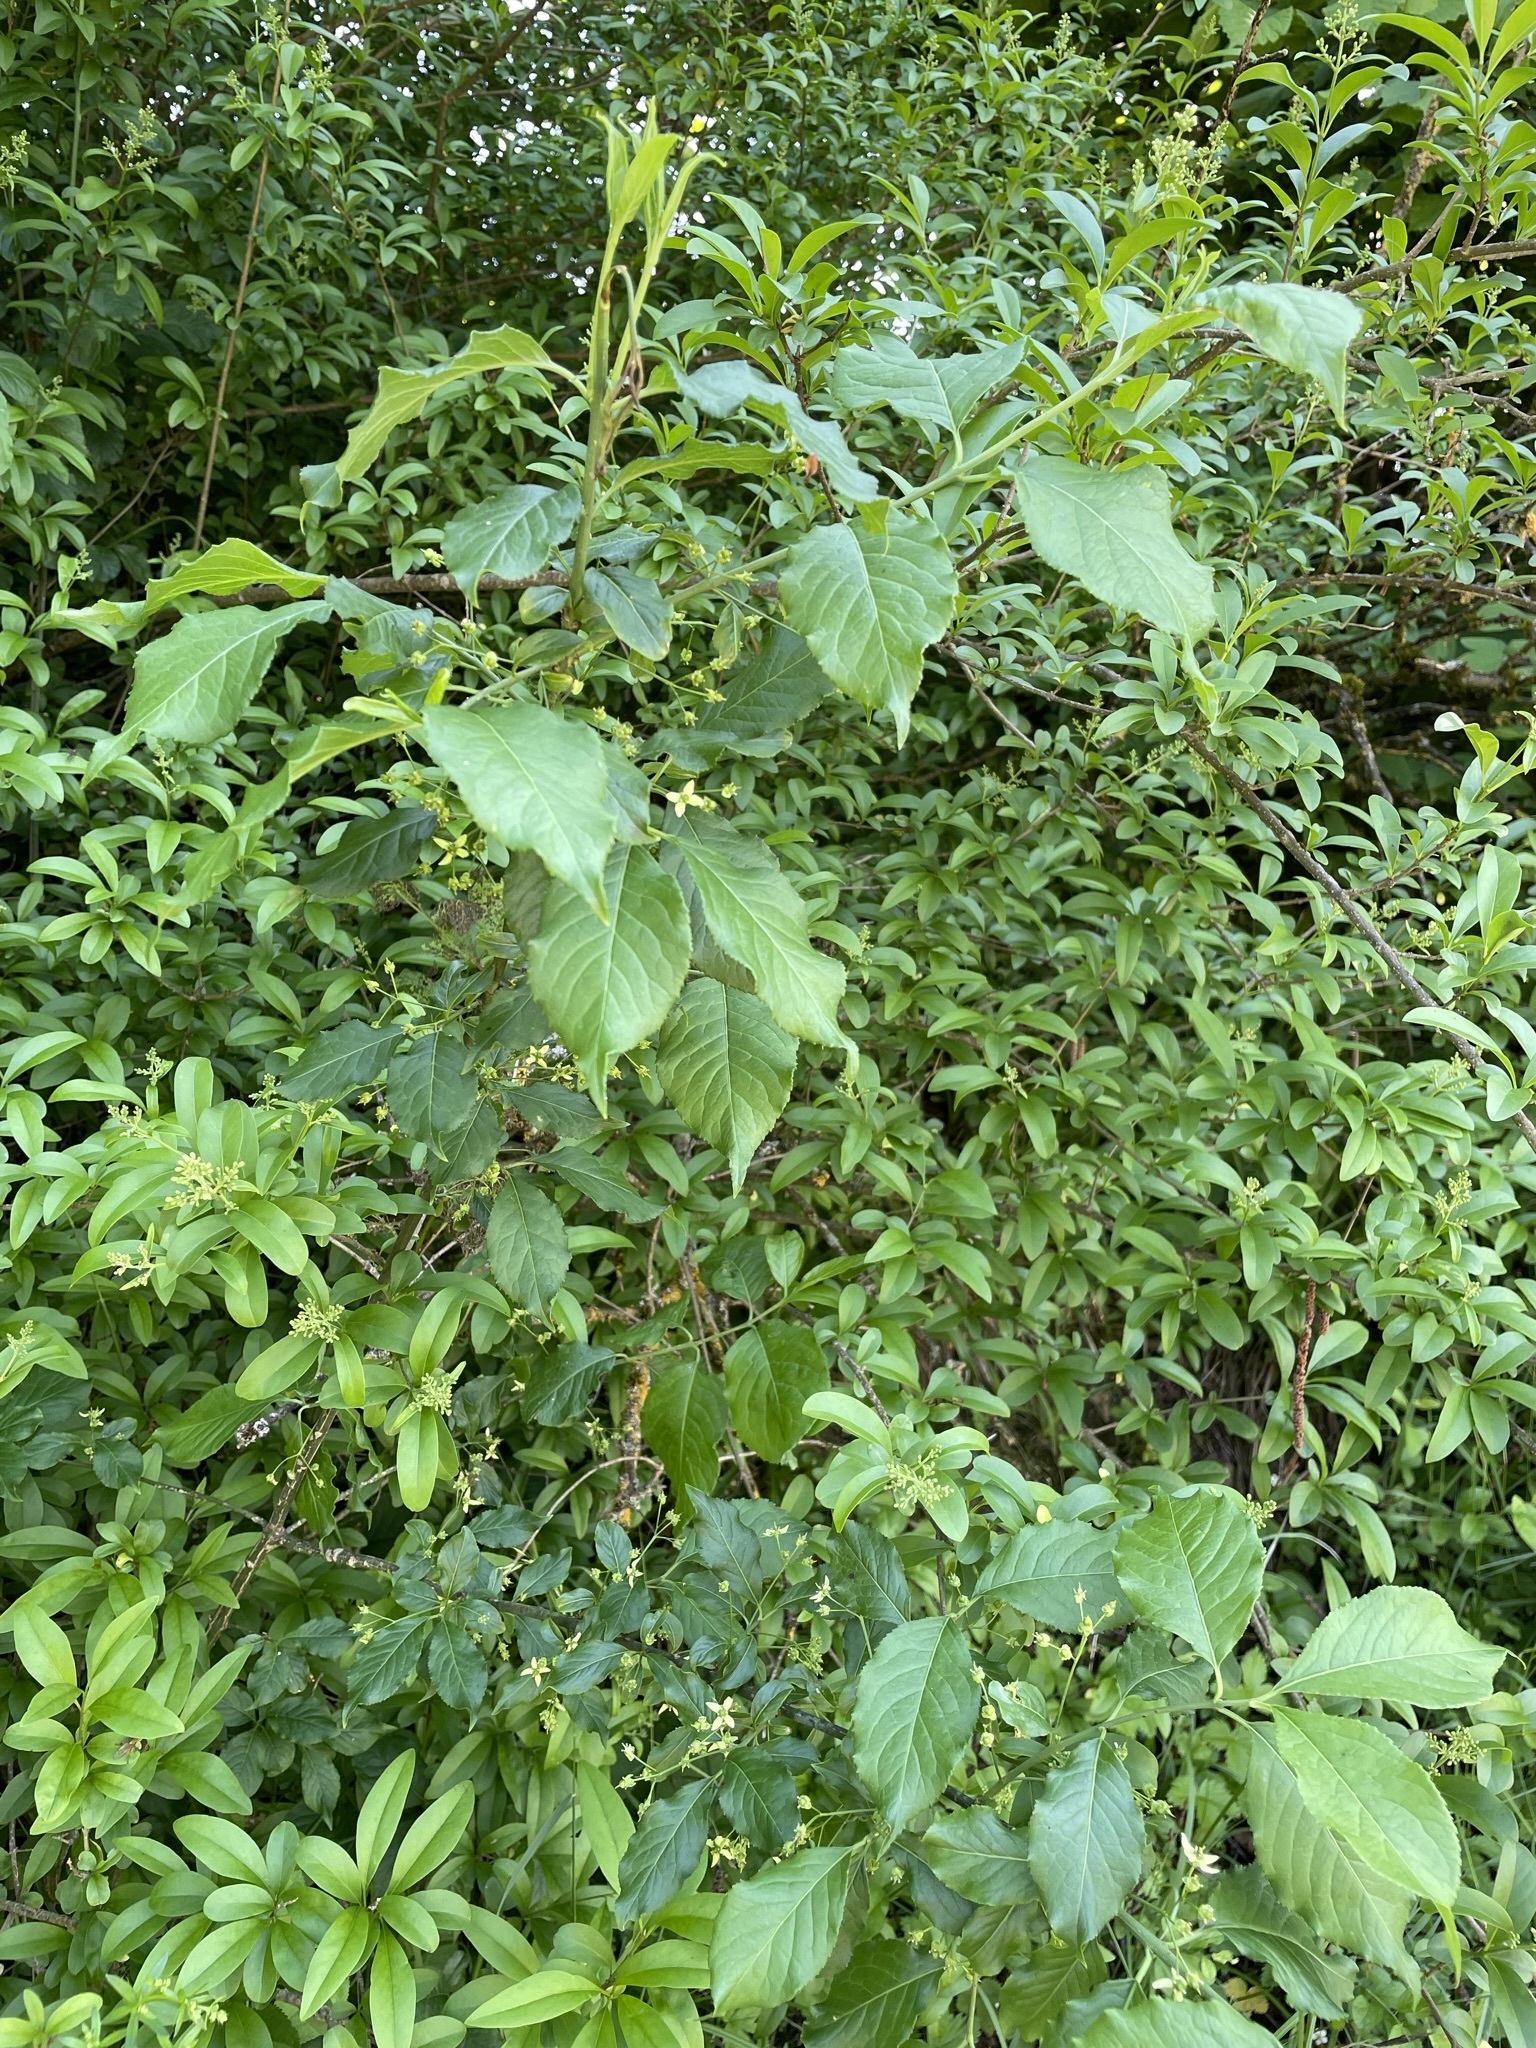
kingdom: Plantae
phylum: Tracheophyta
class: Magnoliopsida
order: Celastrales
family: Celastraceae
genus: Euonymus
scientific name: Euonymus europaeus
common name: Spindle
